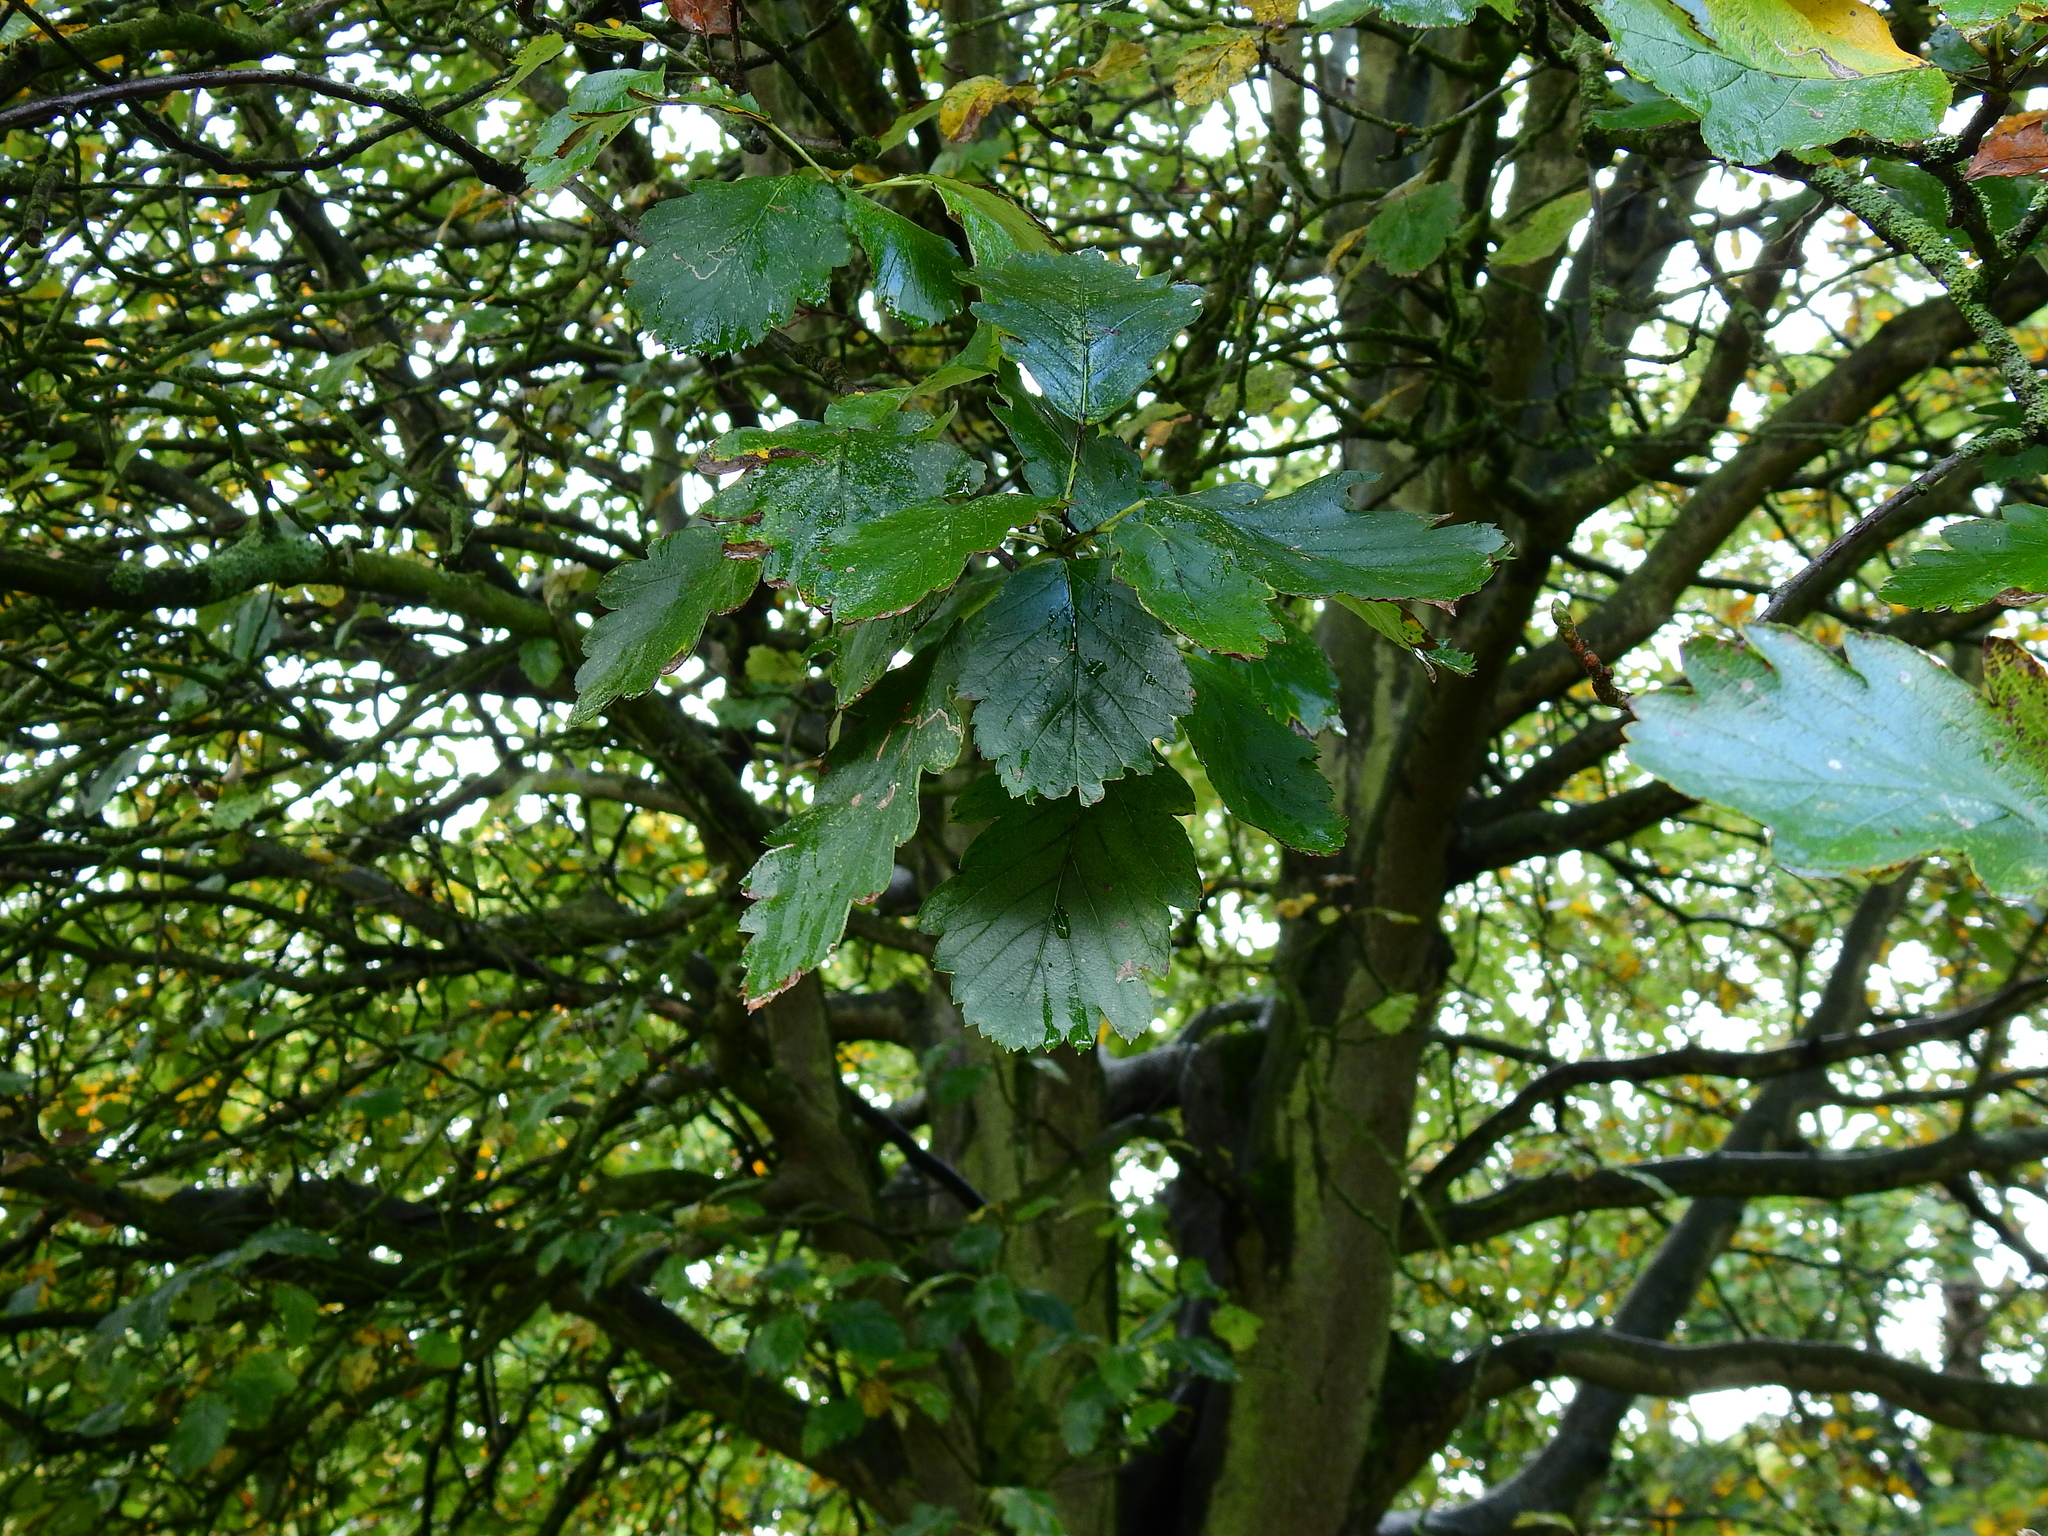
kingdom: Plantae
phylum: Tracheophyta
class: Magnoliopsida
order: Rosales
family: Rosaceae
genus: Aria
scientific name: Aria edulis
